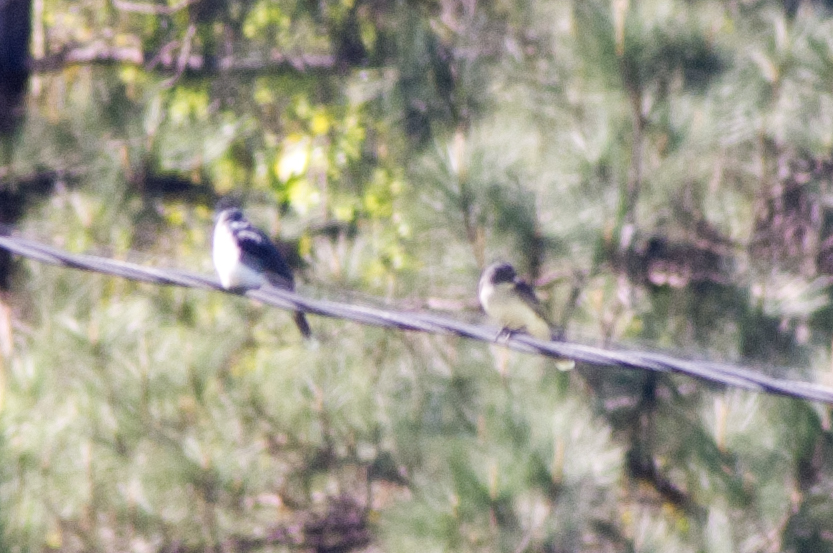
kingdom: Animalia
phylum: Chordata
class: Aves
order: Passeriformes
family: Tyrannidae
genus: Tyrannus
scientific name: Tyrannus tyrannus
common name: Eastern kingbird
